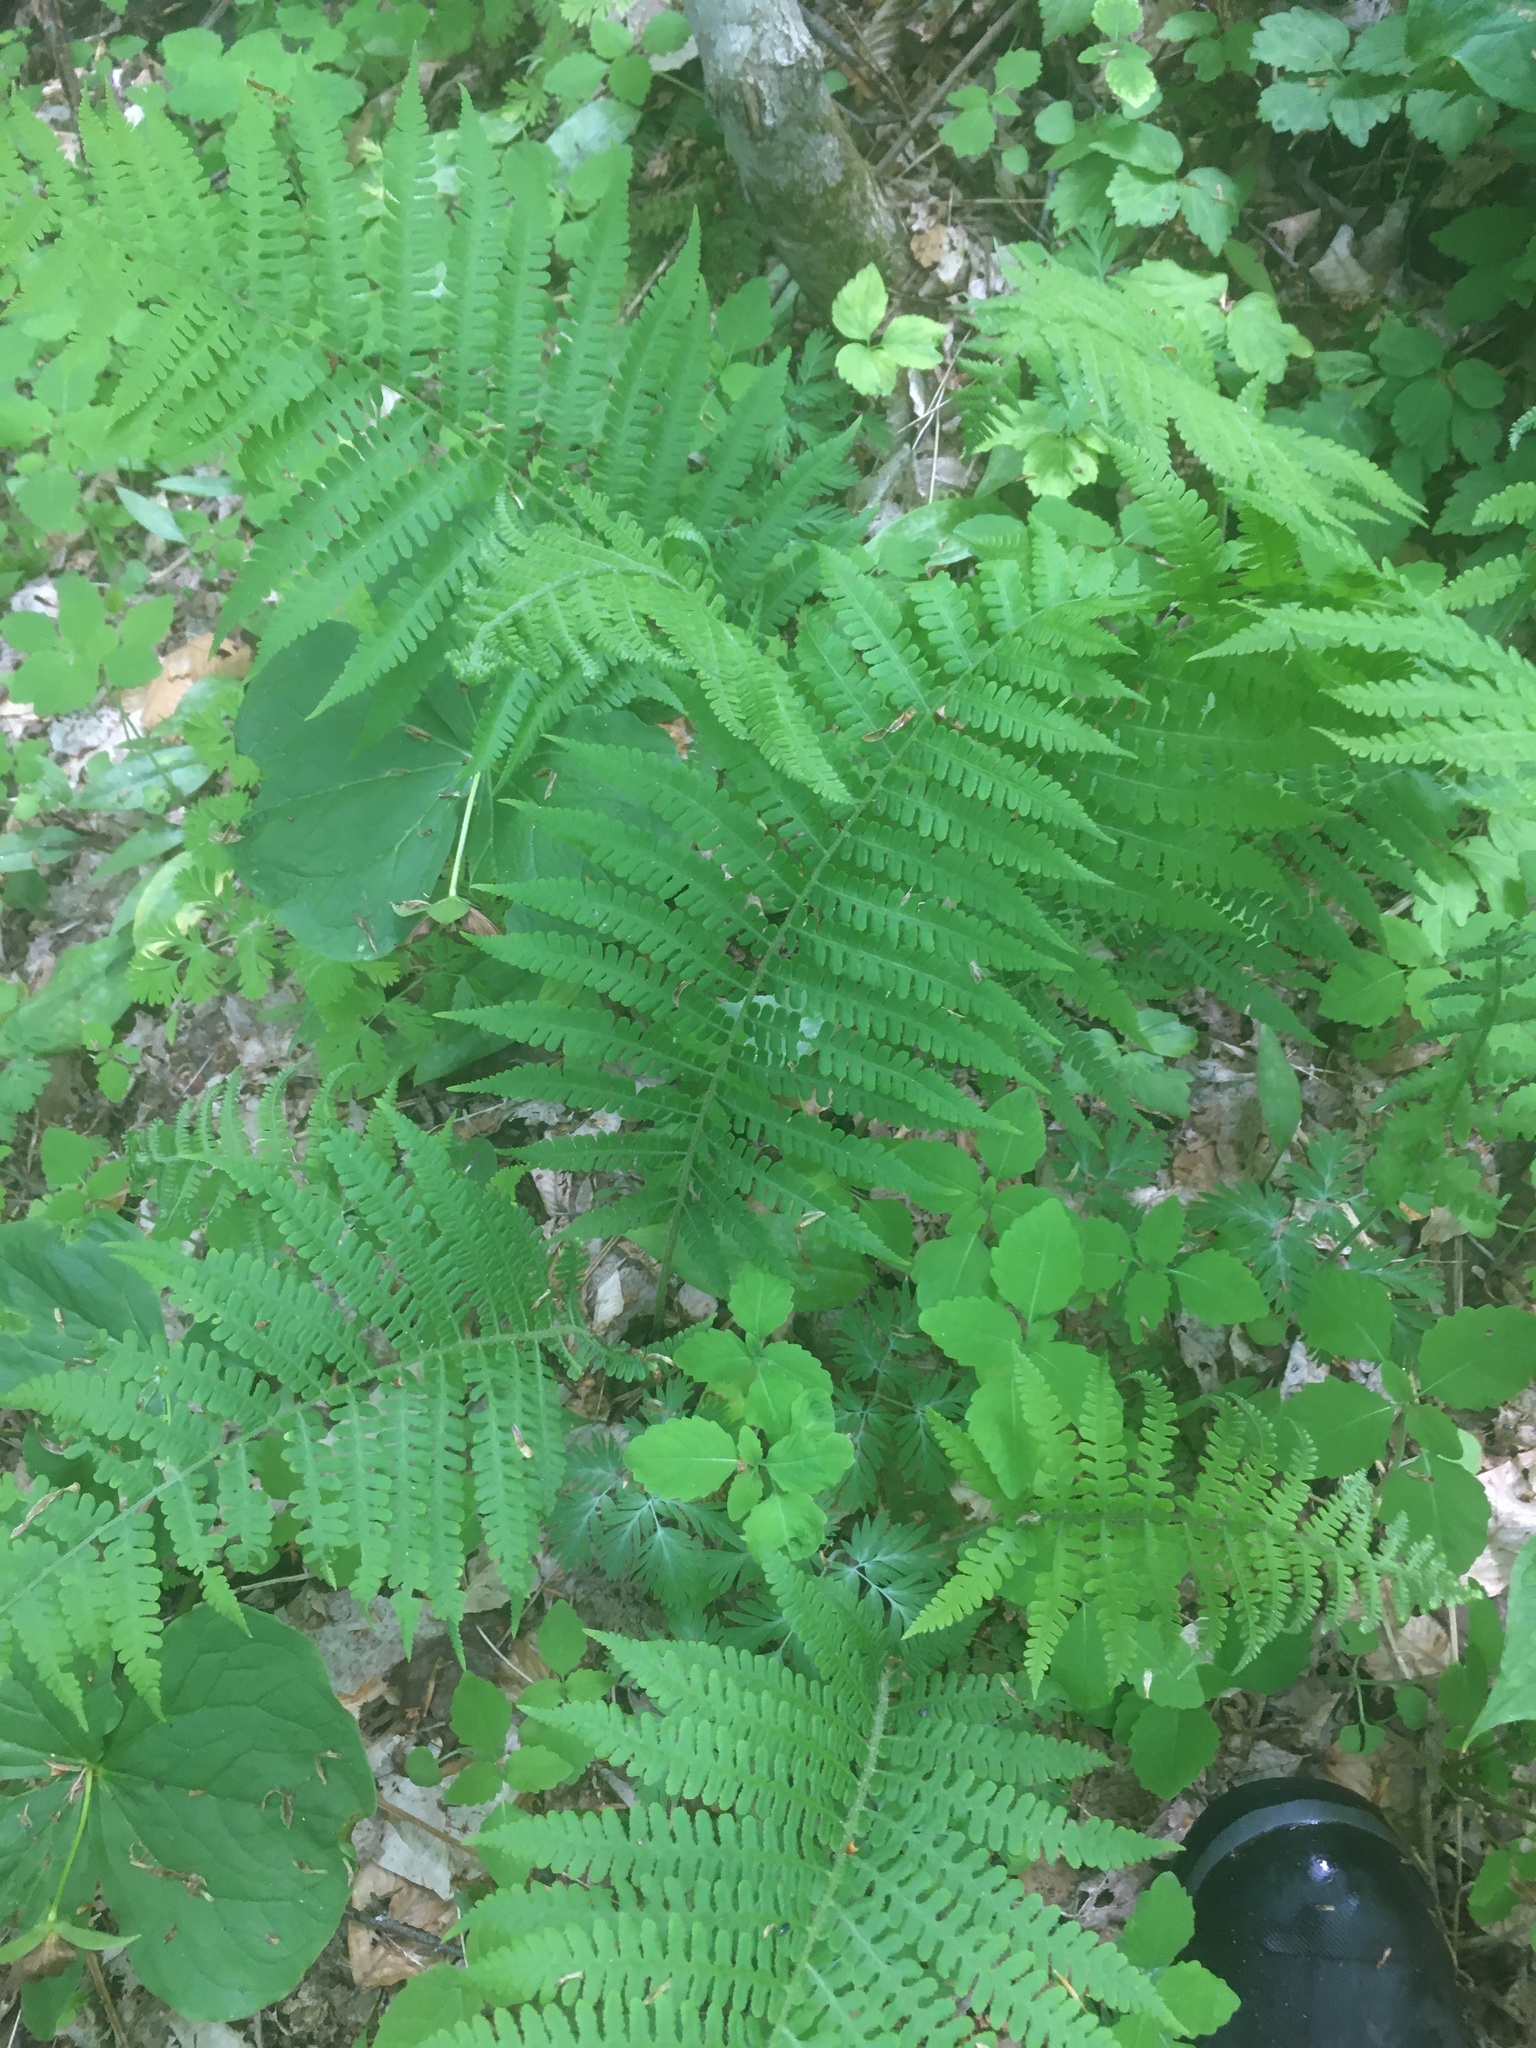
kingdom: Plantae
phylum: Tracheophyta
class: Polypodiopsida
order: Polypodiales
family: Athyriaceae
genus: Deparia
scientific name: Deparia acrostichoides
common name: Silver false spleenwort
